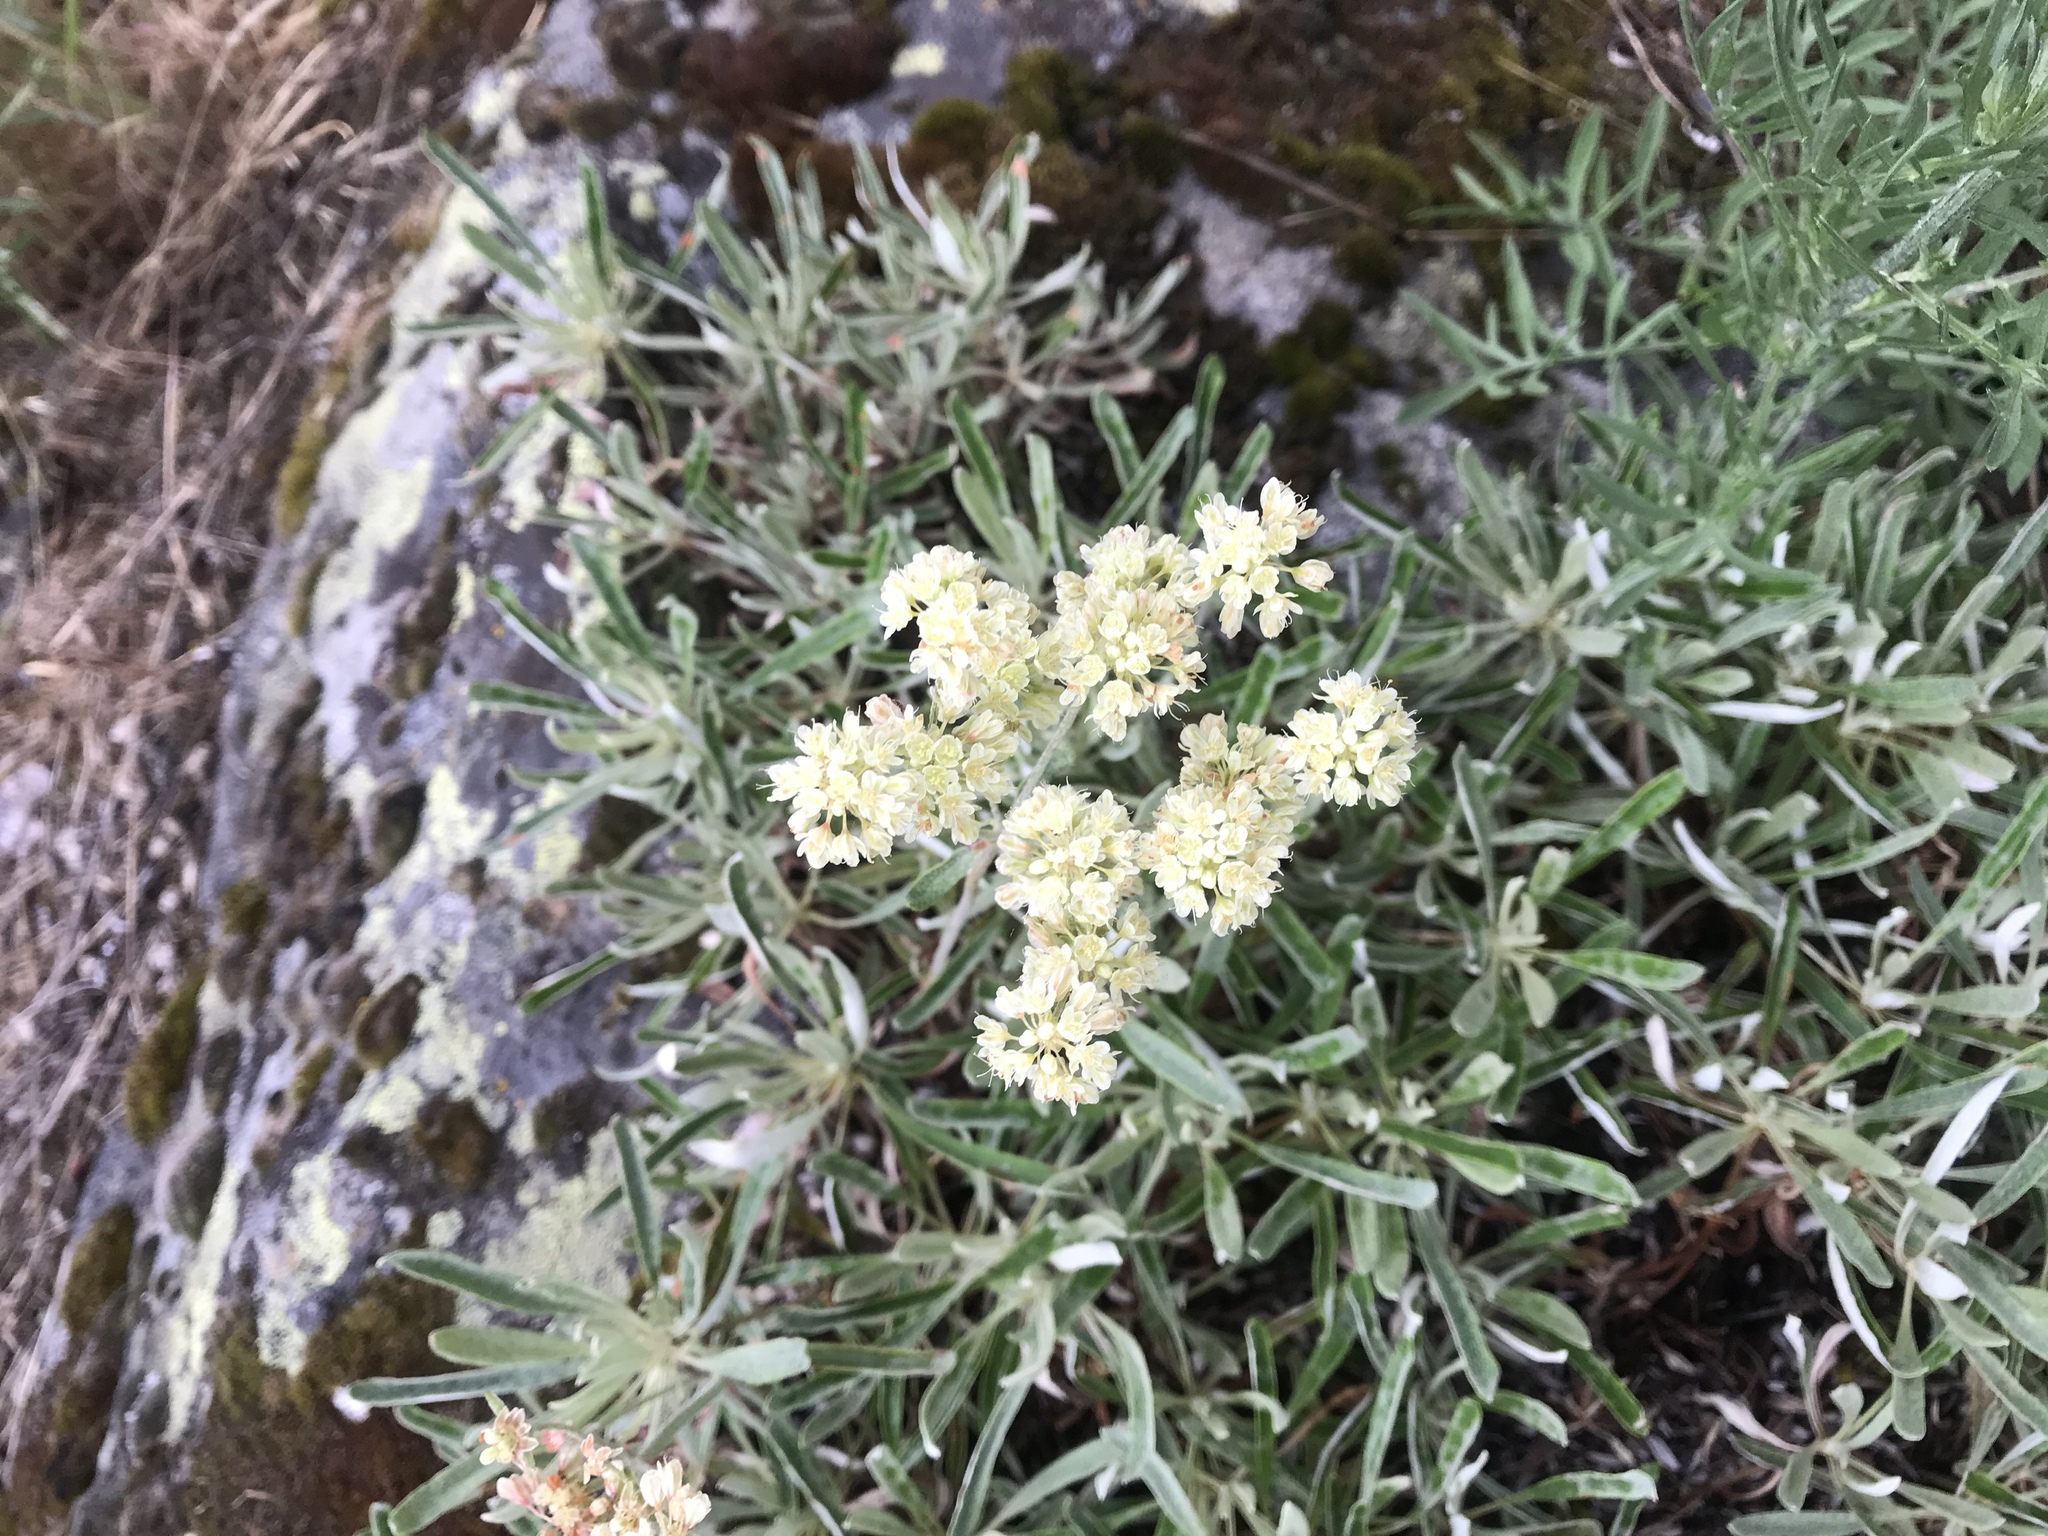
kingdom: Plantae
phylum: Tracheophyta
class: Magnoliopsida
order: Caryophyllales
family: Polygonaceae
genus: Eriogonum
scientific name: Eriogonum heracleoides
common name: Wyeth's buckwheat
